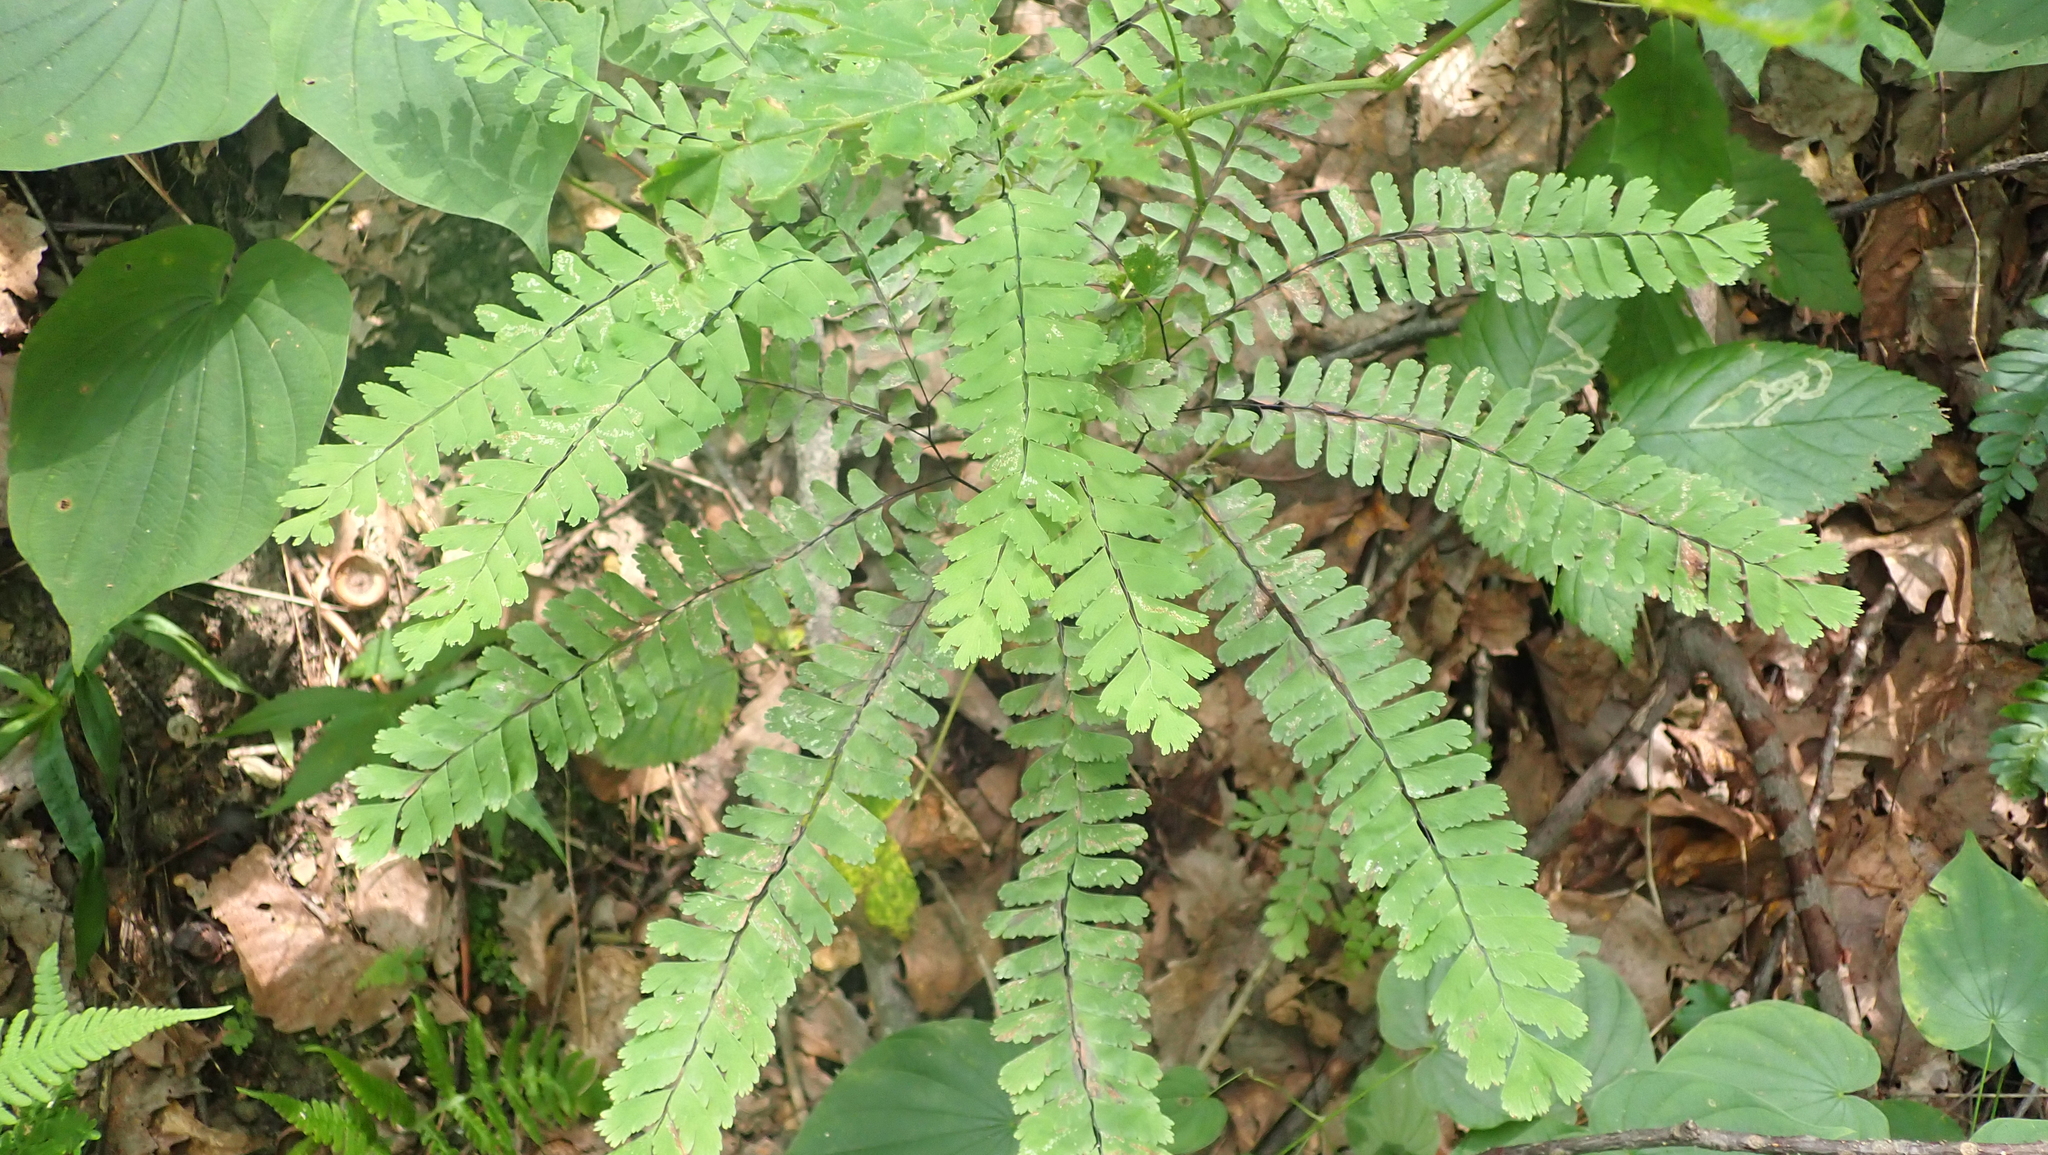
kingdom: Plantae
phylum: Tracheophyta
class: Polypodiopsida
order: Polypodiales
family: Pteridaceae
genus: Adiantum
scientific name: Adiantum pedatum
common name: Five-finger fern
